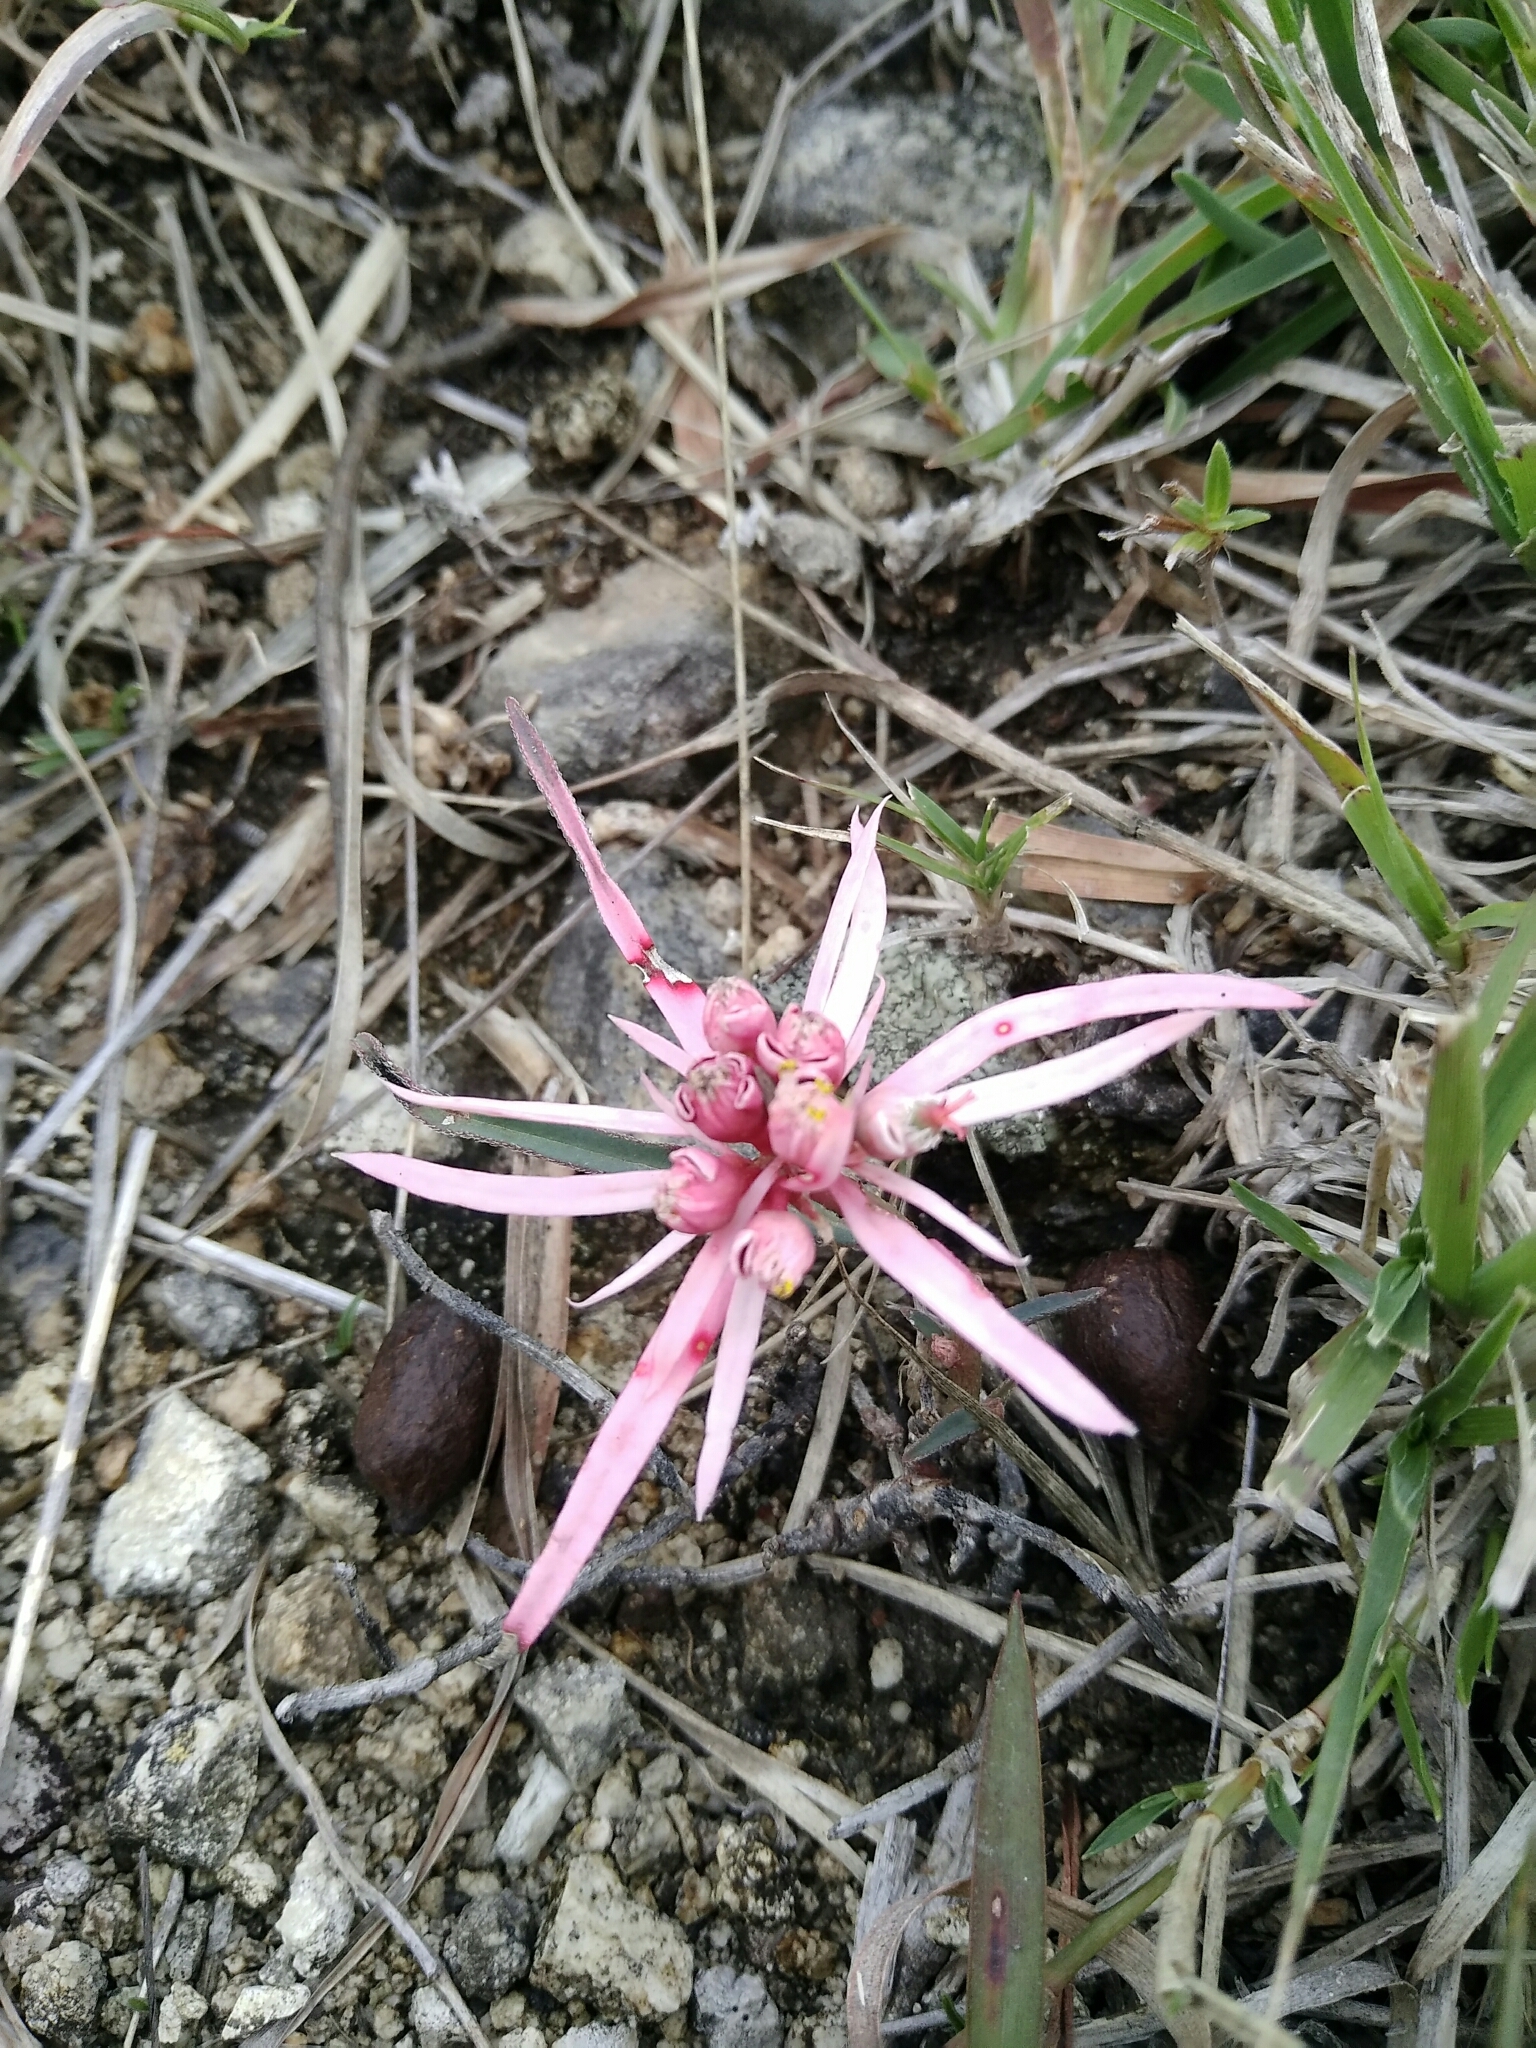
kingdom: Plantae
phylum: Tracheophyta
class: Magnoliopsida
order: Malpighiales
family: Euphorbiaceae
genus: Euphorbia
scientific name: Euphorbia radians
